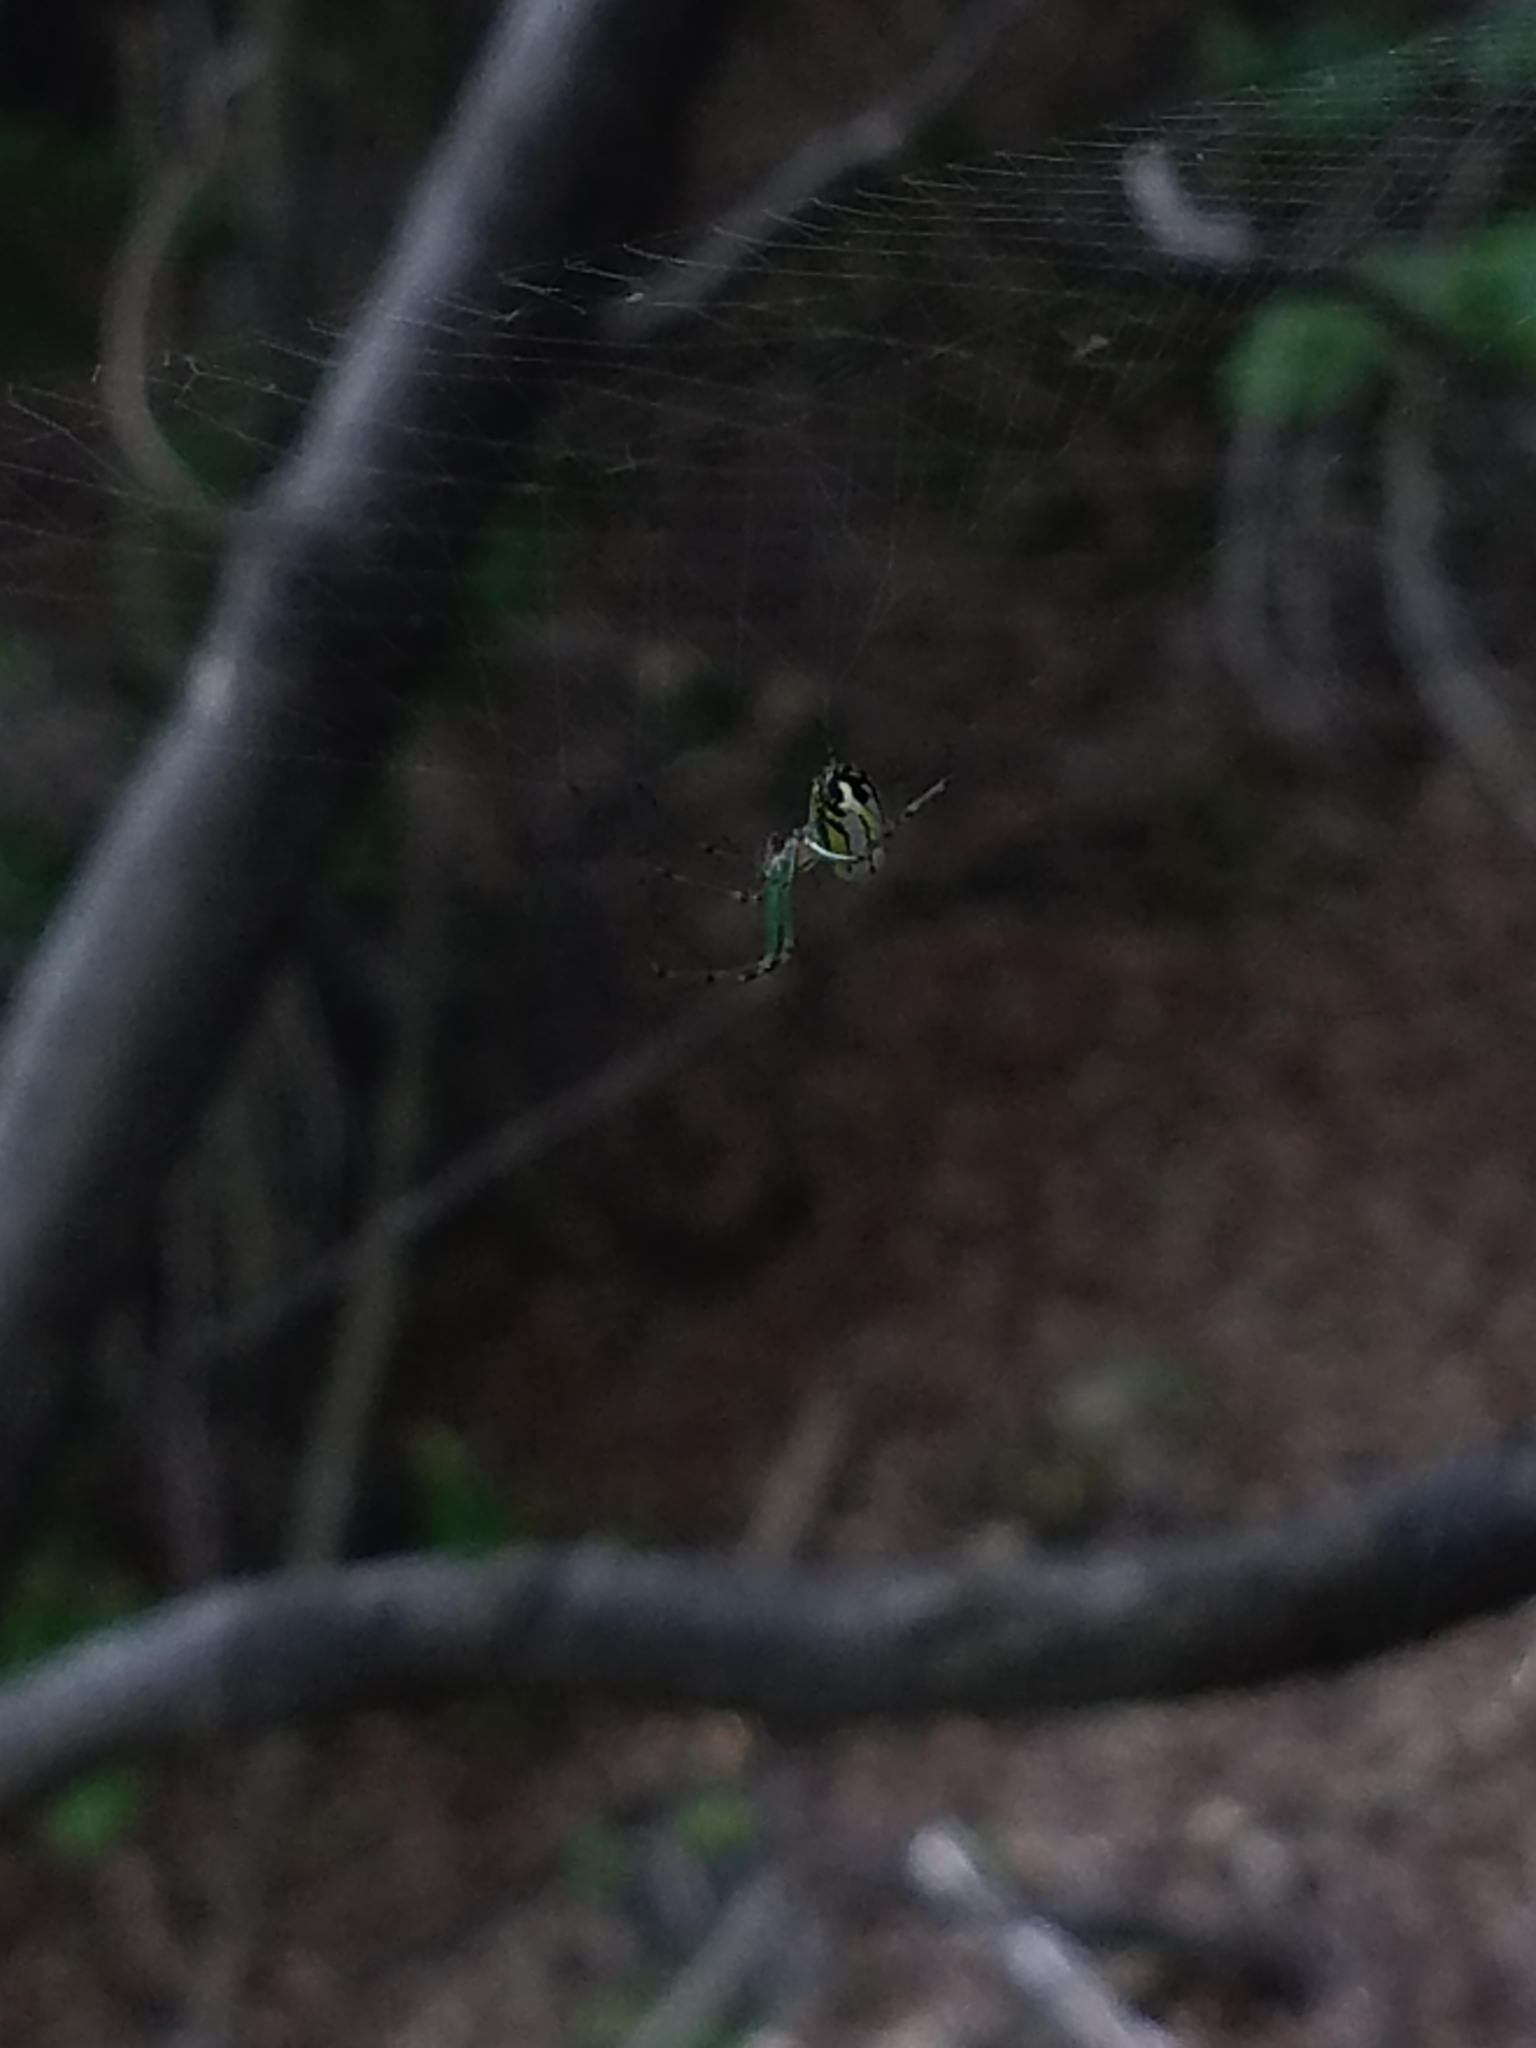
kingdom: Animalia
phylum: Arthropoda
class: Arachnida
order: Araneae
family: Tetragnathidae
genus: Leucauge
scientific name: Leucauge venusta
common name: Longjawed orb weavers
